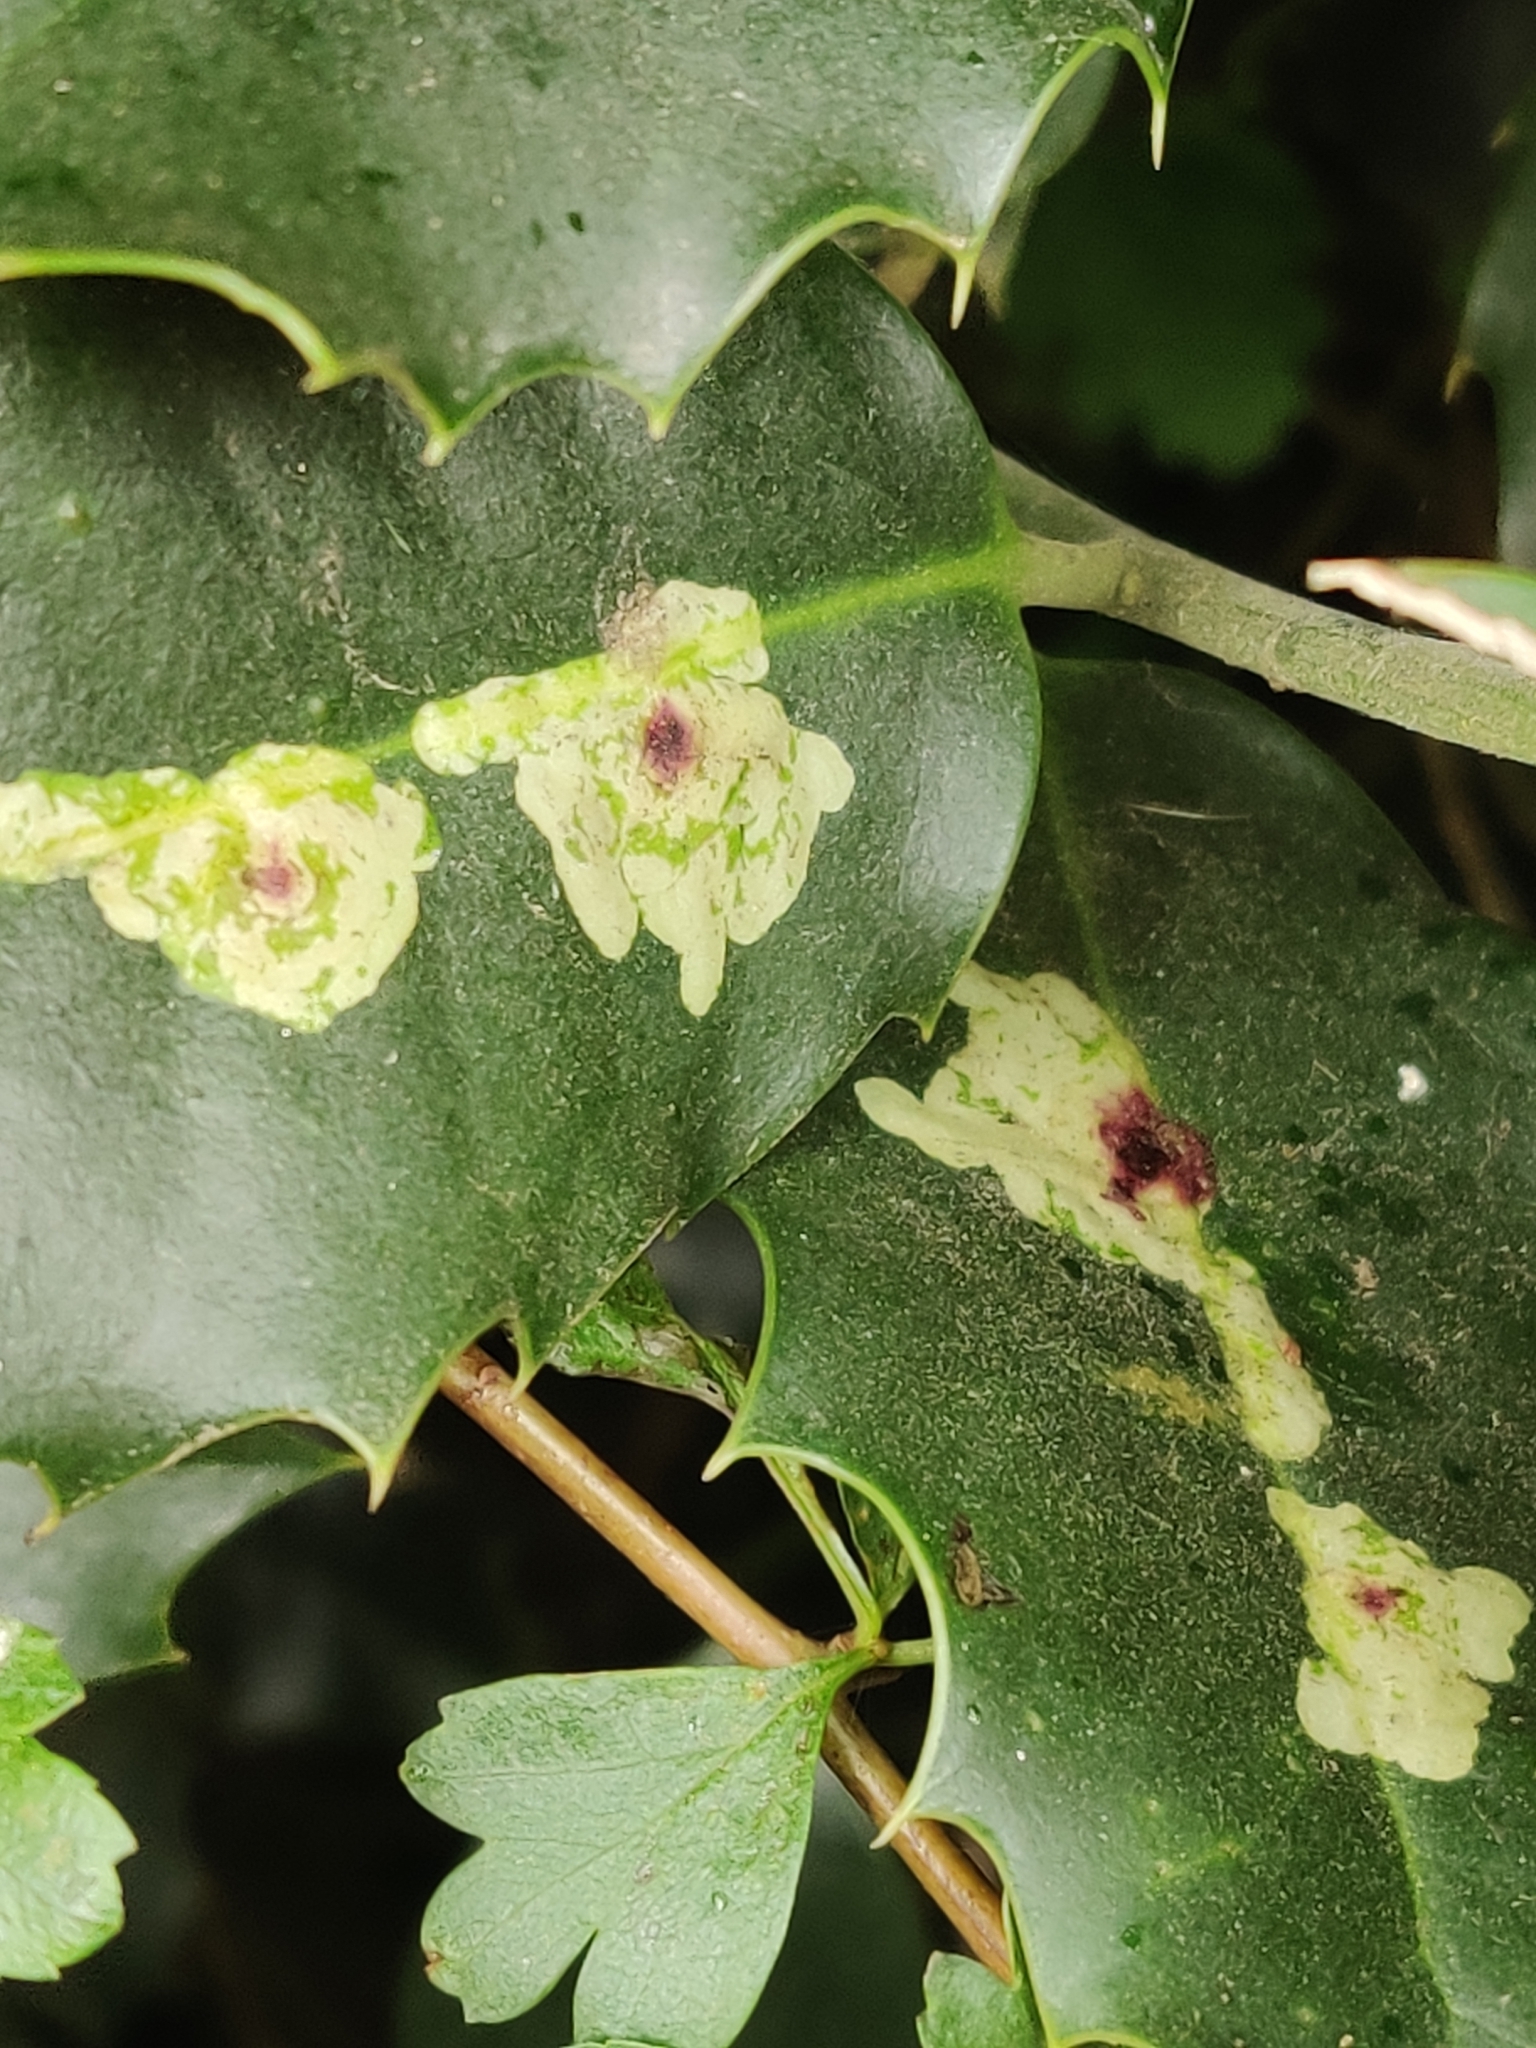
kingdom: Animalia
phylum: Arthropoda
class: Insecta
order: Diptera
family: Agromyzidae
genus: Phytomyza
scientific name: Phytomyza ilicis
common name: Holly leafminer
